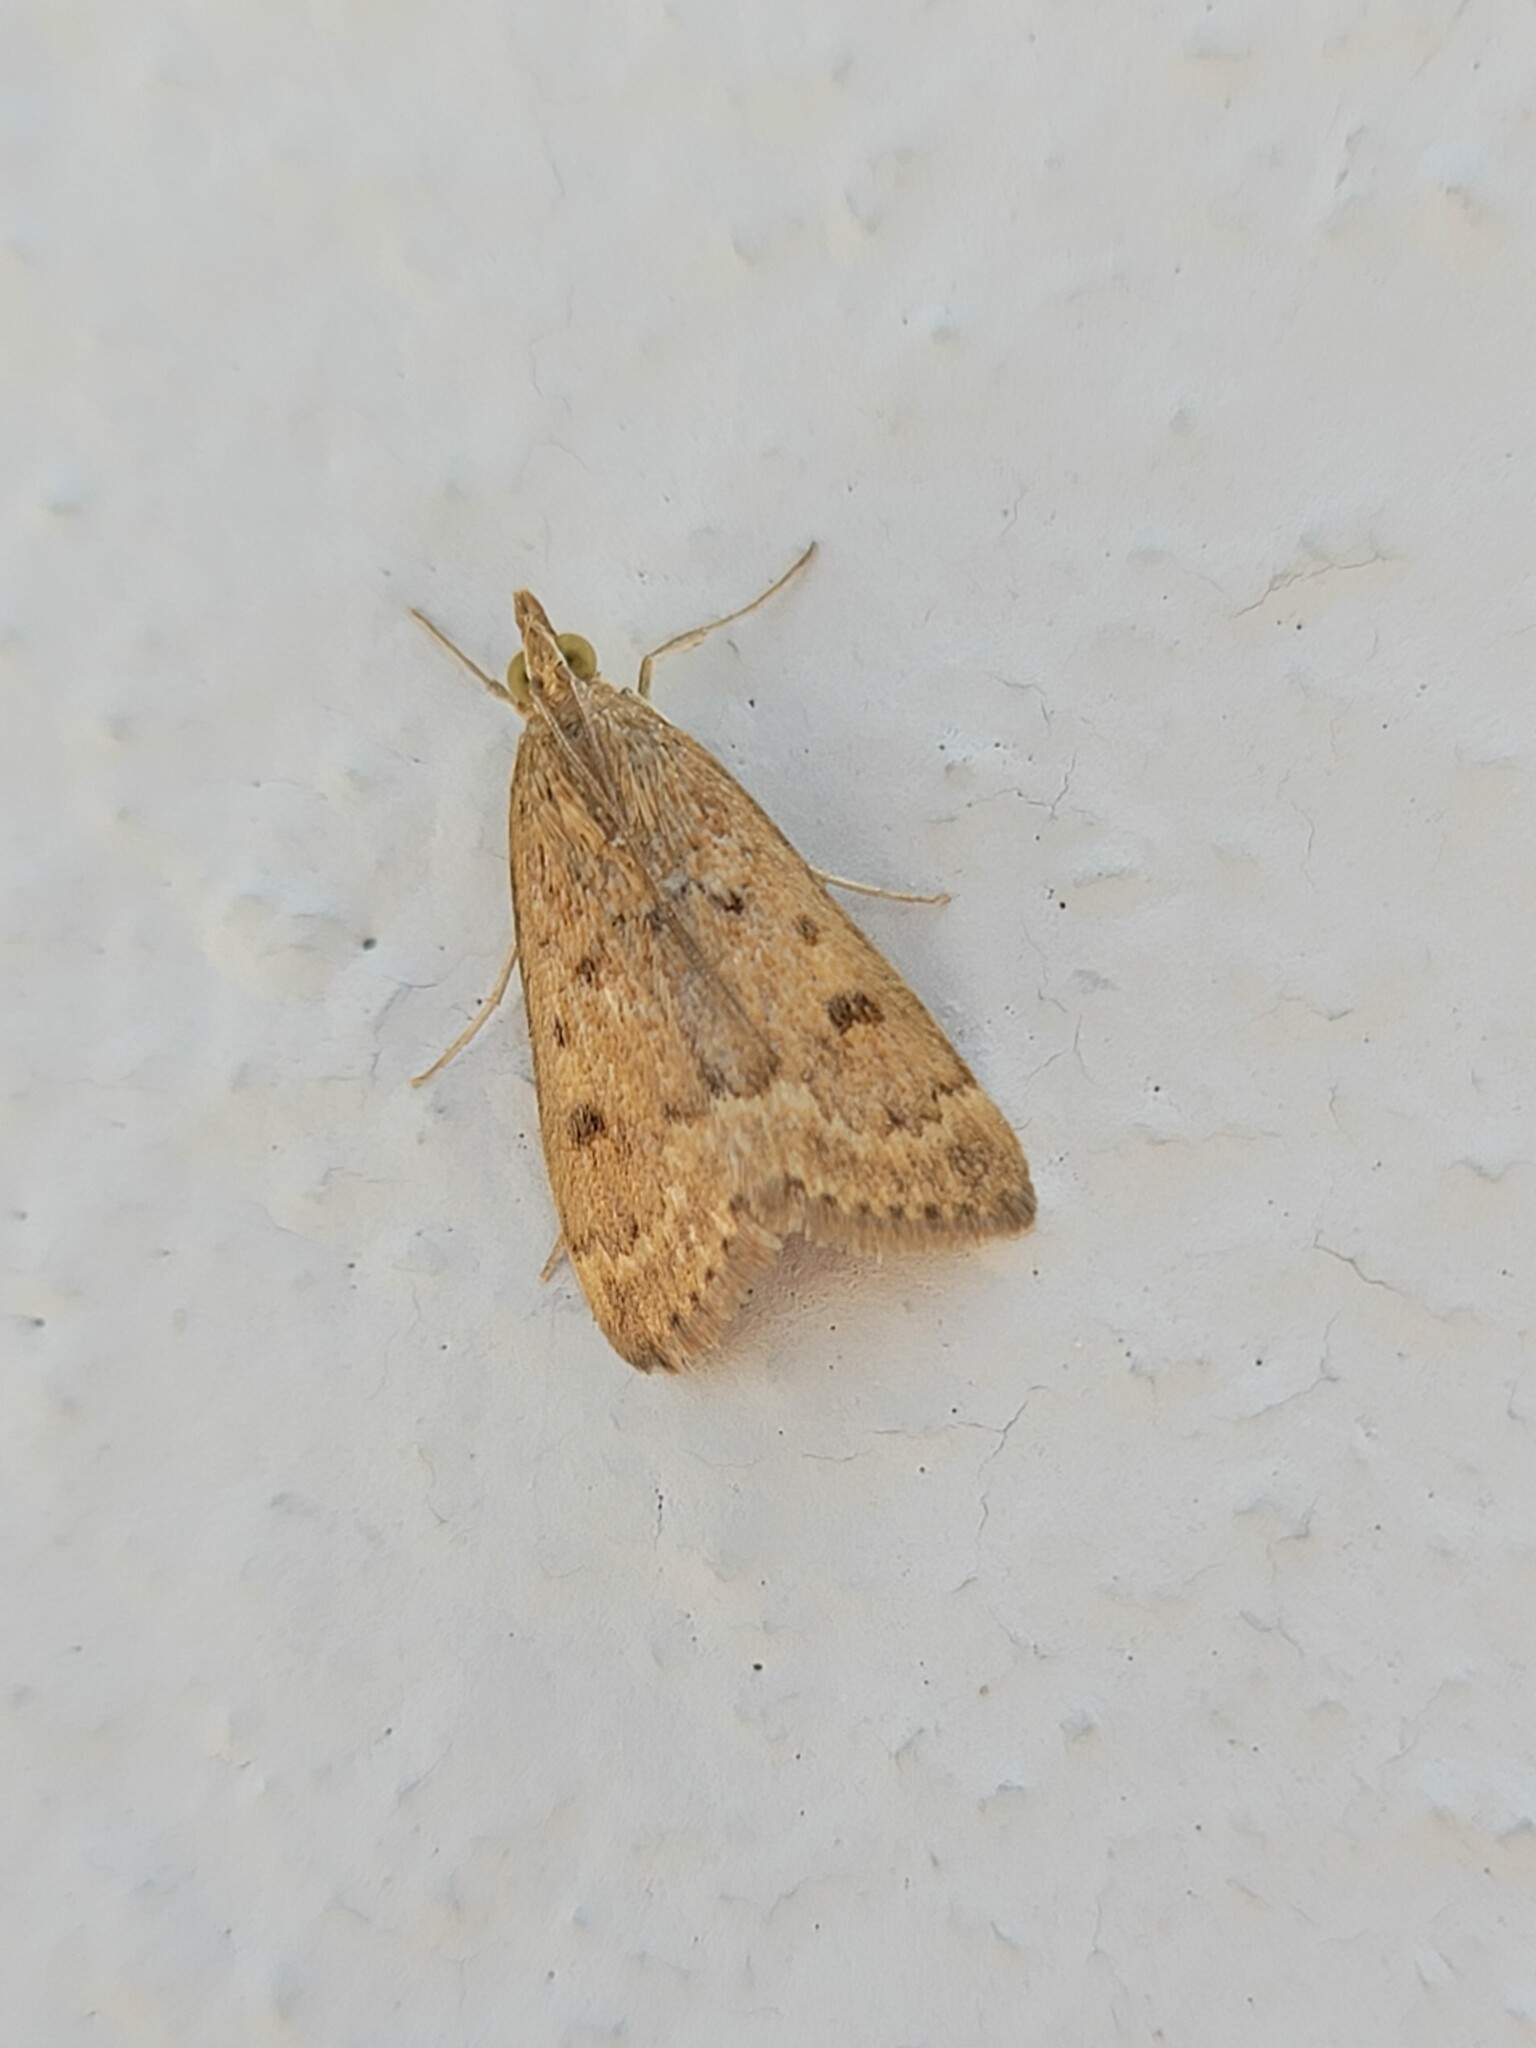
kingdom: Animalia
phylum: Arthropoda
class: Insecta
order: Lepidoptera
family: Crambidae
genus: Achyra
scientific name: Achyra rantalis
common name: Garden webworm
